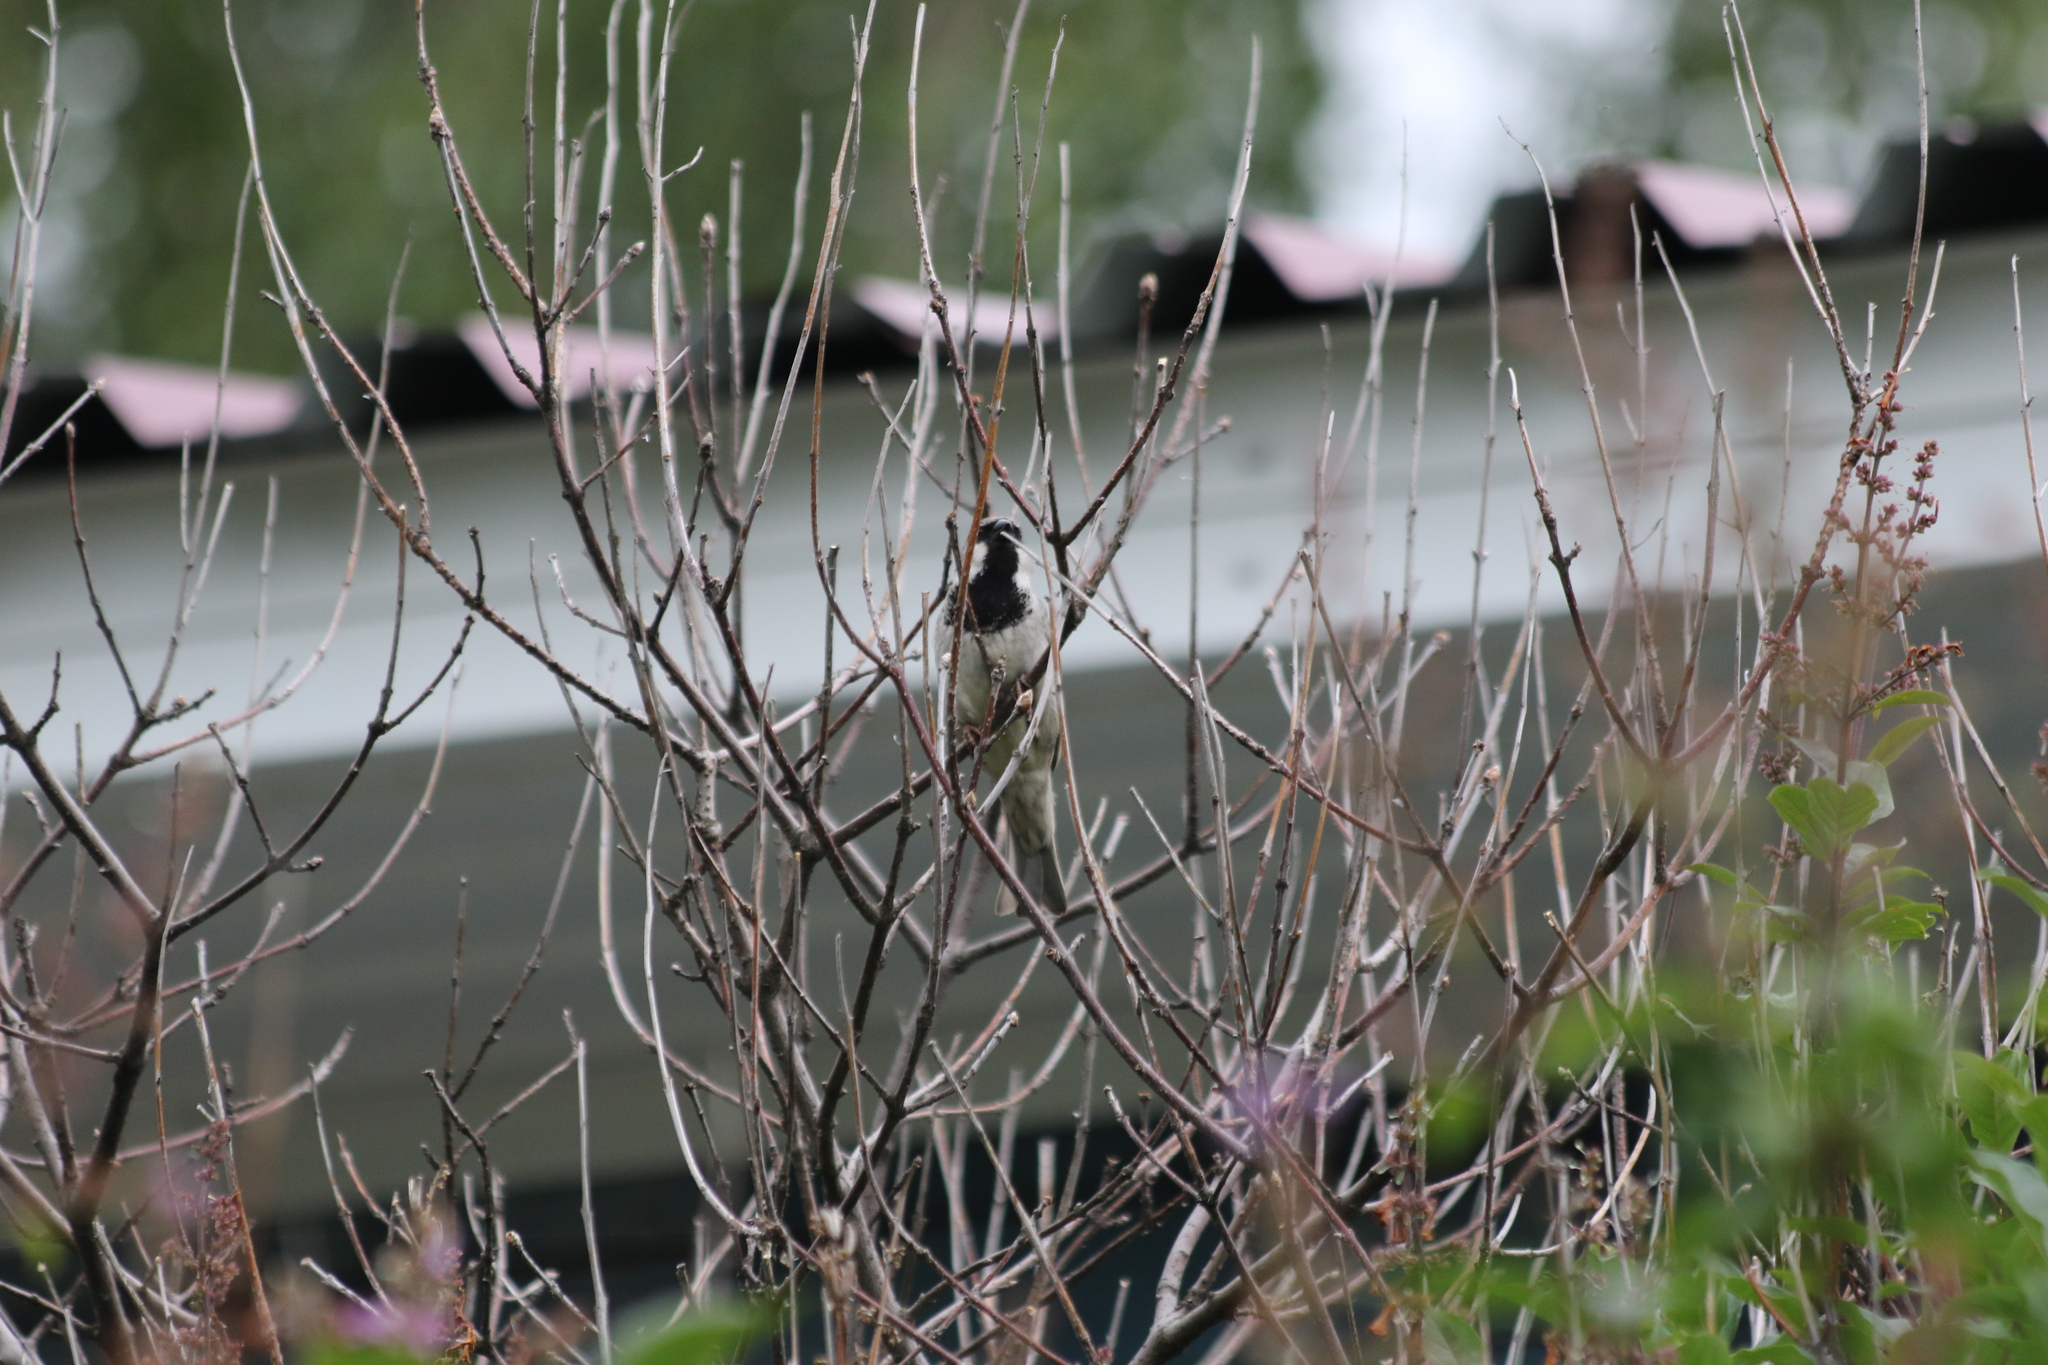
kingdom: Animalia
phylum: Chordata
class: Aves
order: Passeriformes
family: Passeridae
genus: Passer
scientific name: Passer domesticus
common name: House sparrow
